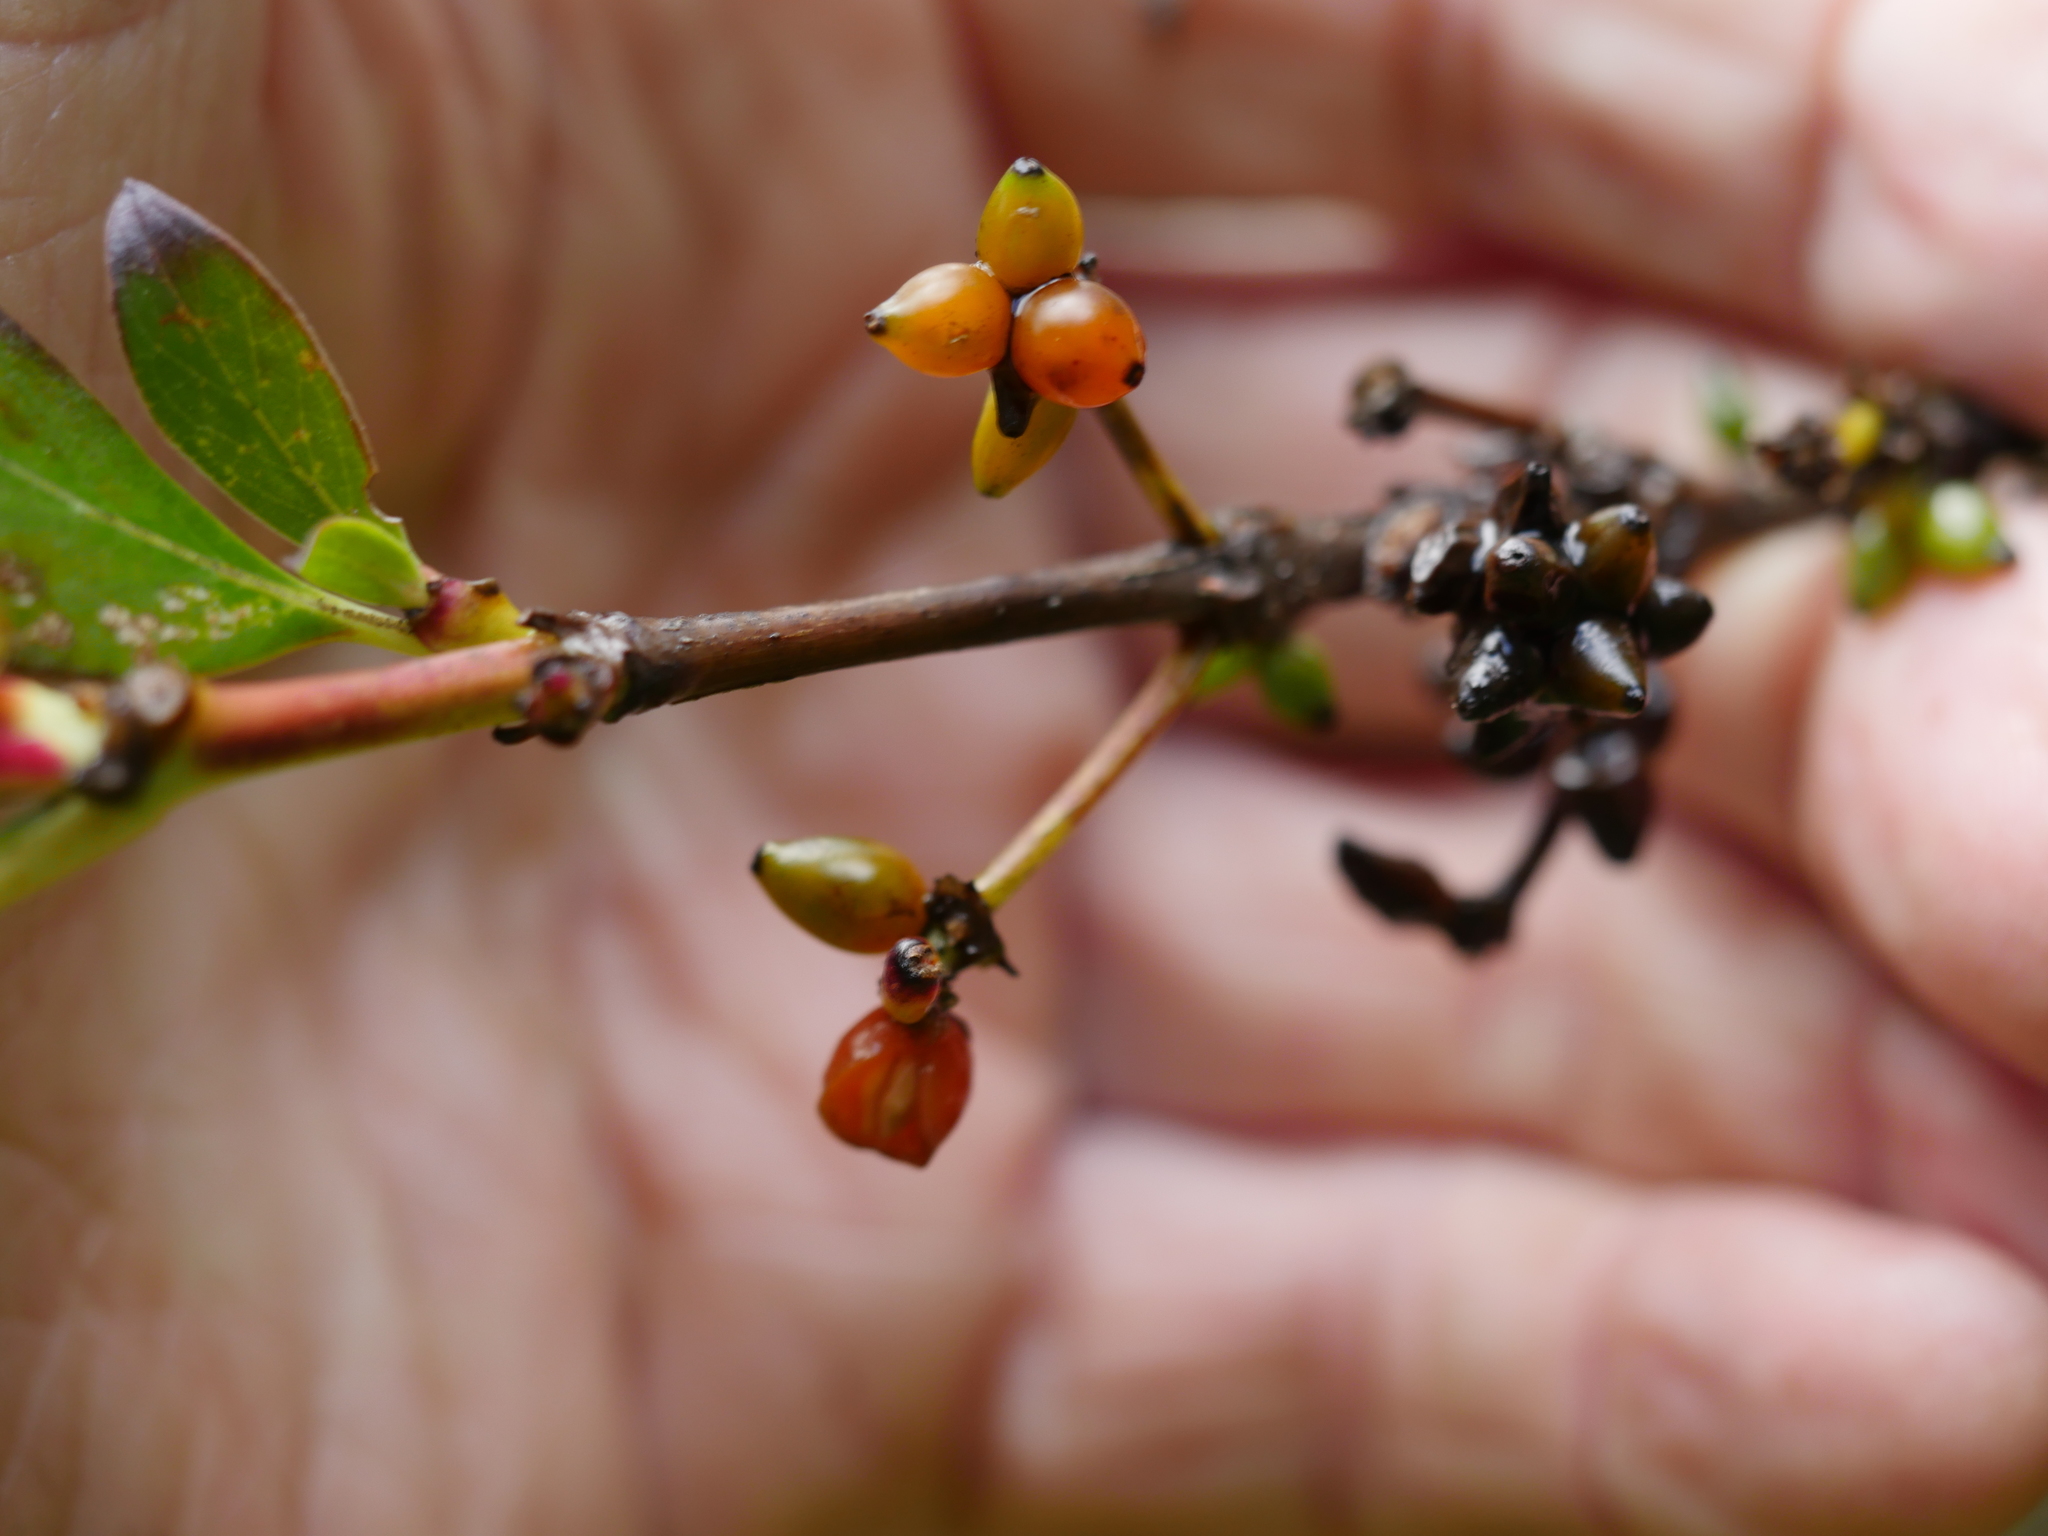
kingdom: Plantae
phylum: Tracheophyta
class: Magnoliopsida
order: Gentianales
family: Rubiaceae
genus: Coprosma
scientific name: Coprosma robusta
